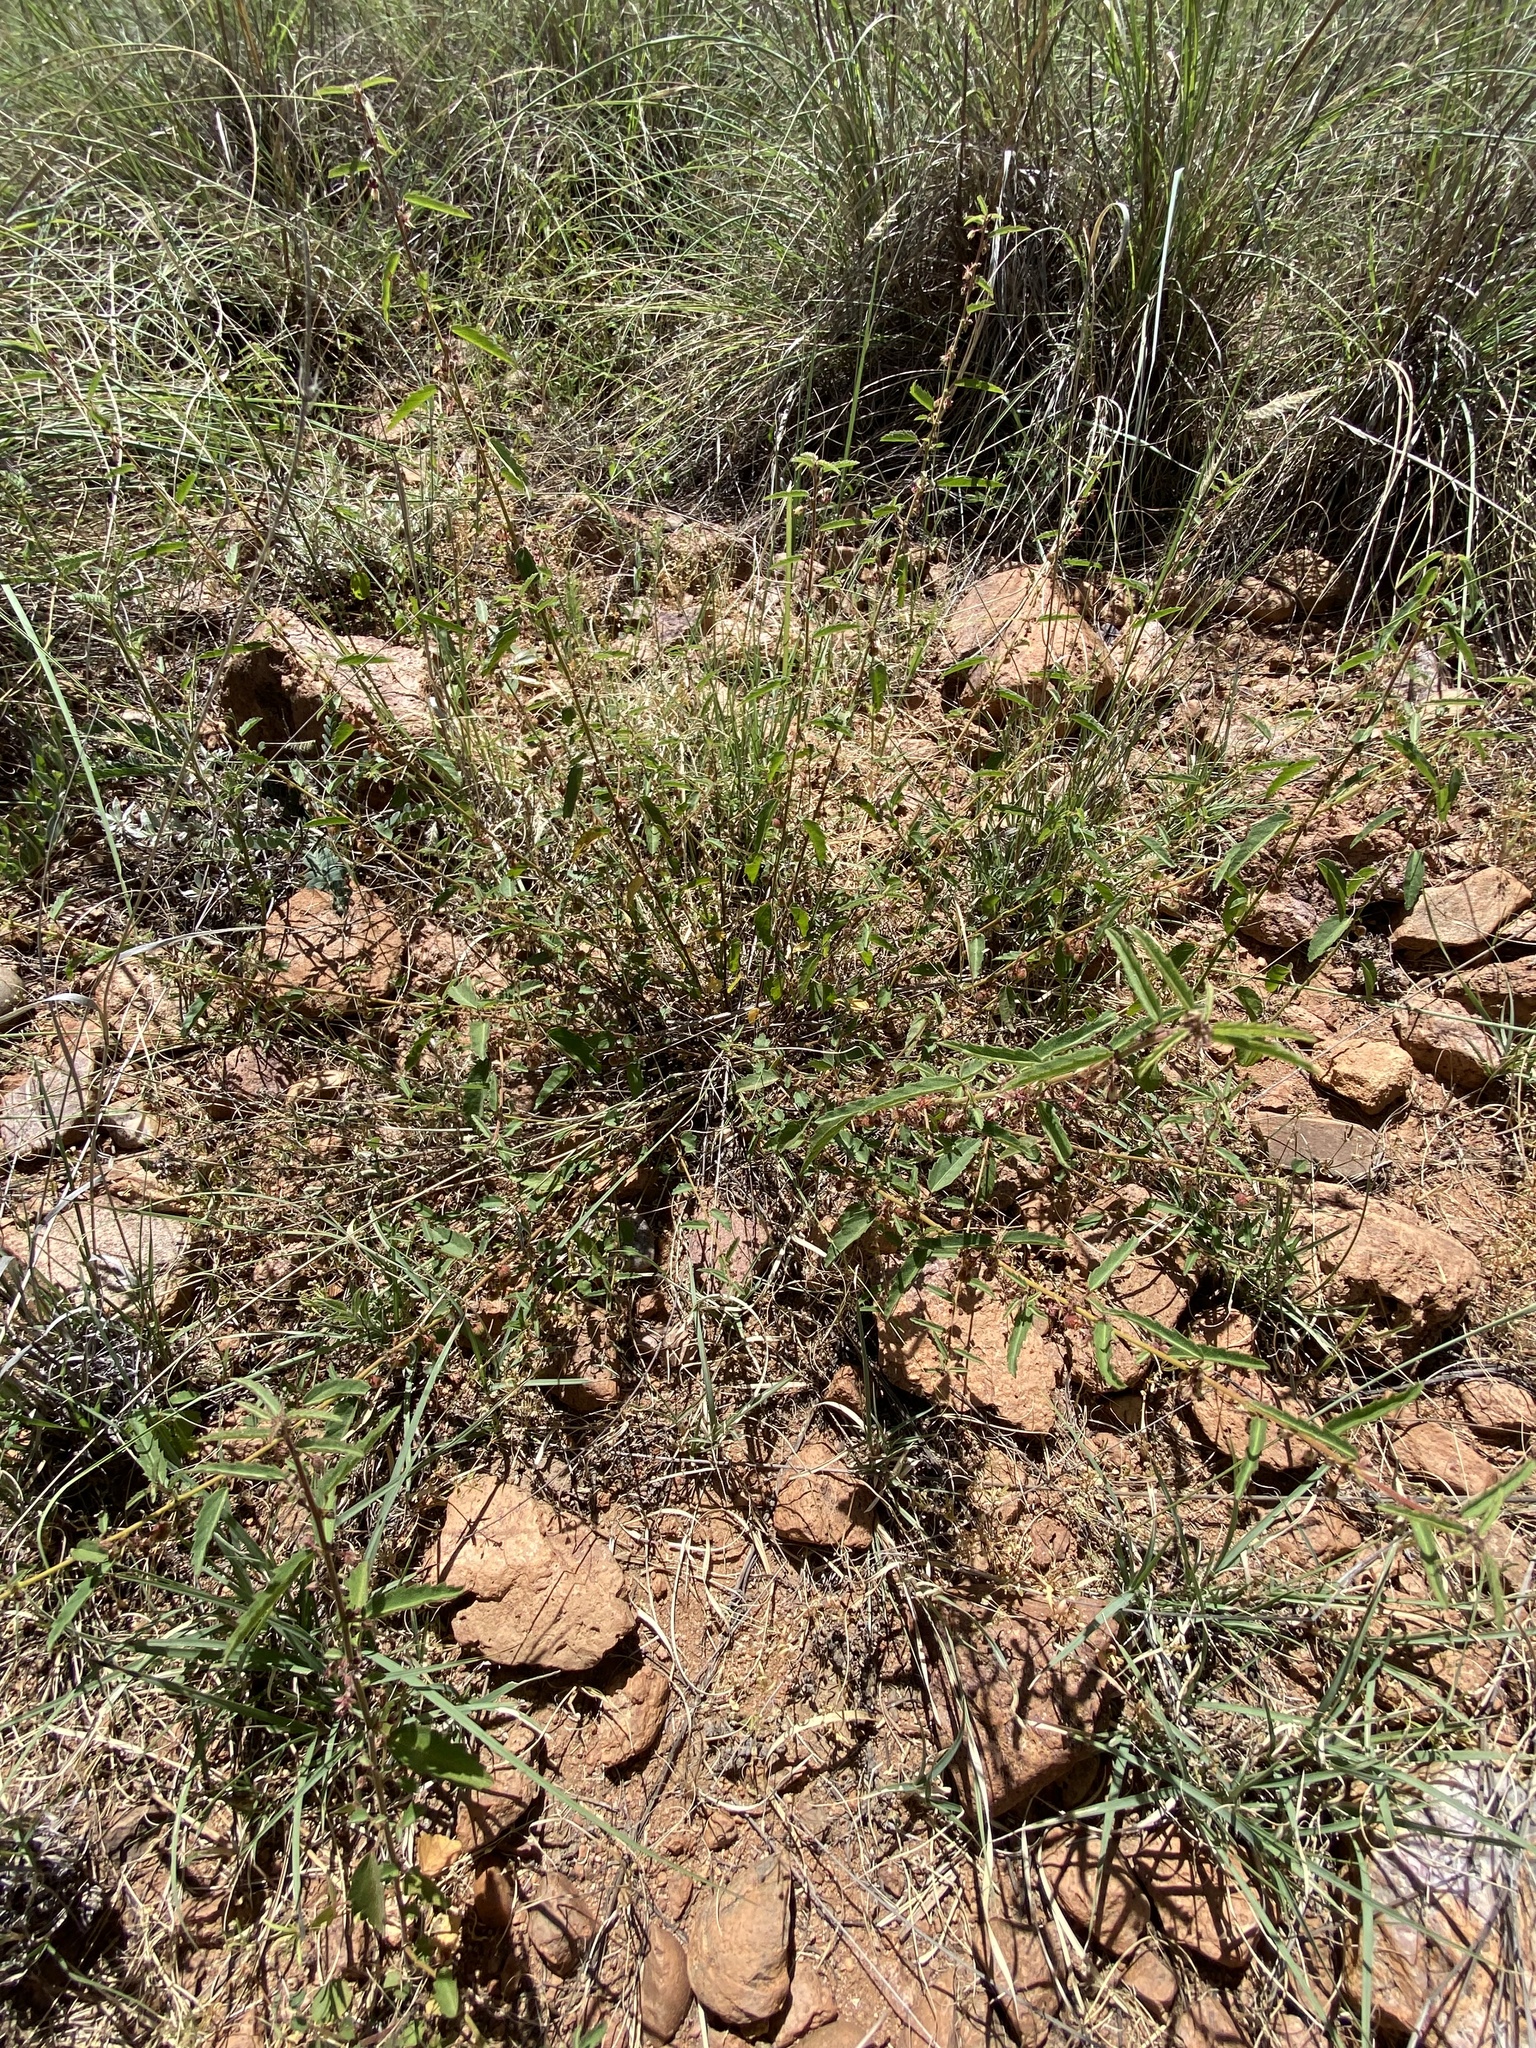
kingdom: Plantae
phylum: Tracheophyta
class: Magnoliopsida
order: Malvales
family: Malvaceae
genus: Ayenia
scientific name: Ayenia filiformis
